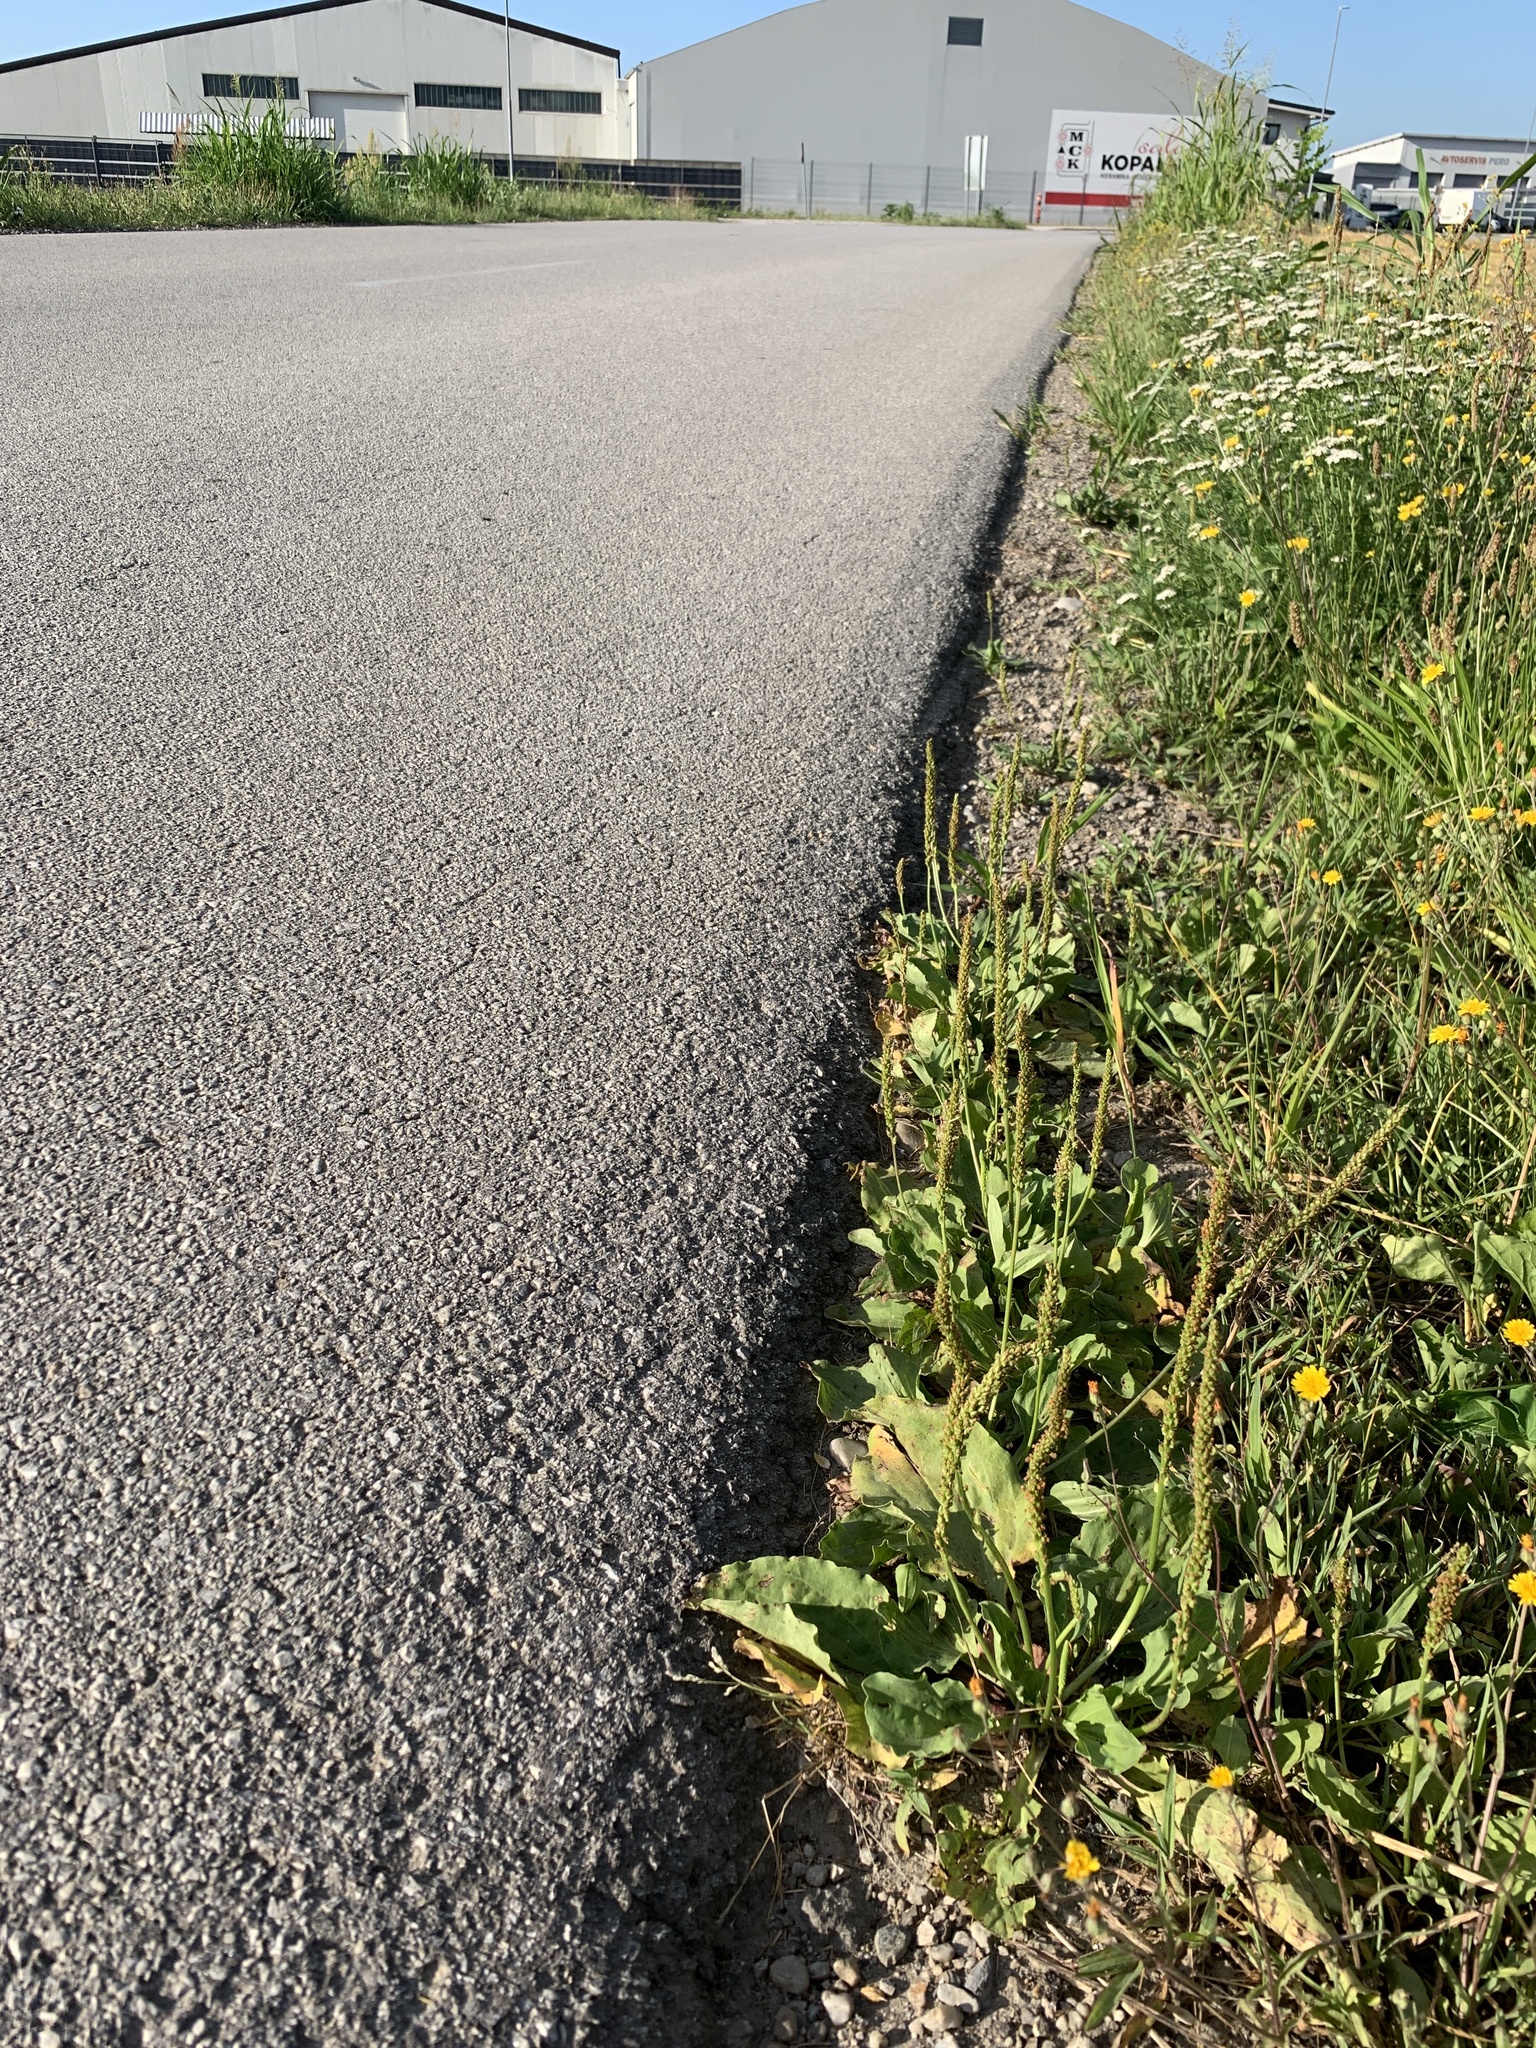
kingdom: Plantae
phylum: Tracheophyta
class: Magnoliopsida
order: Lamiales
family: Plantaginaceae
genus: Plantago
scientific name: Plantago major
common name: Common plantain
